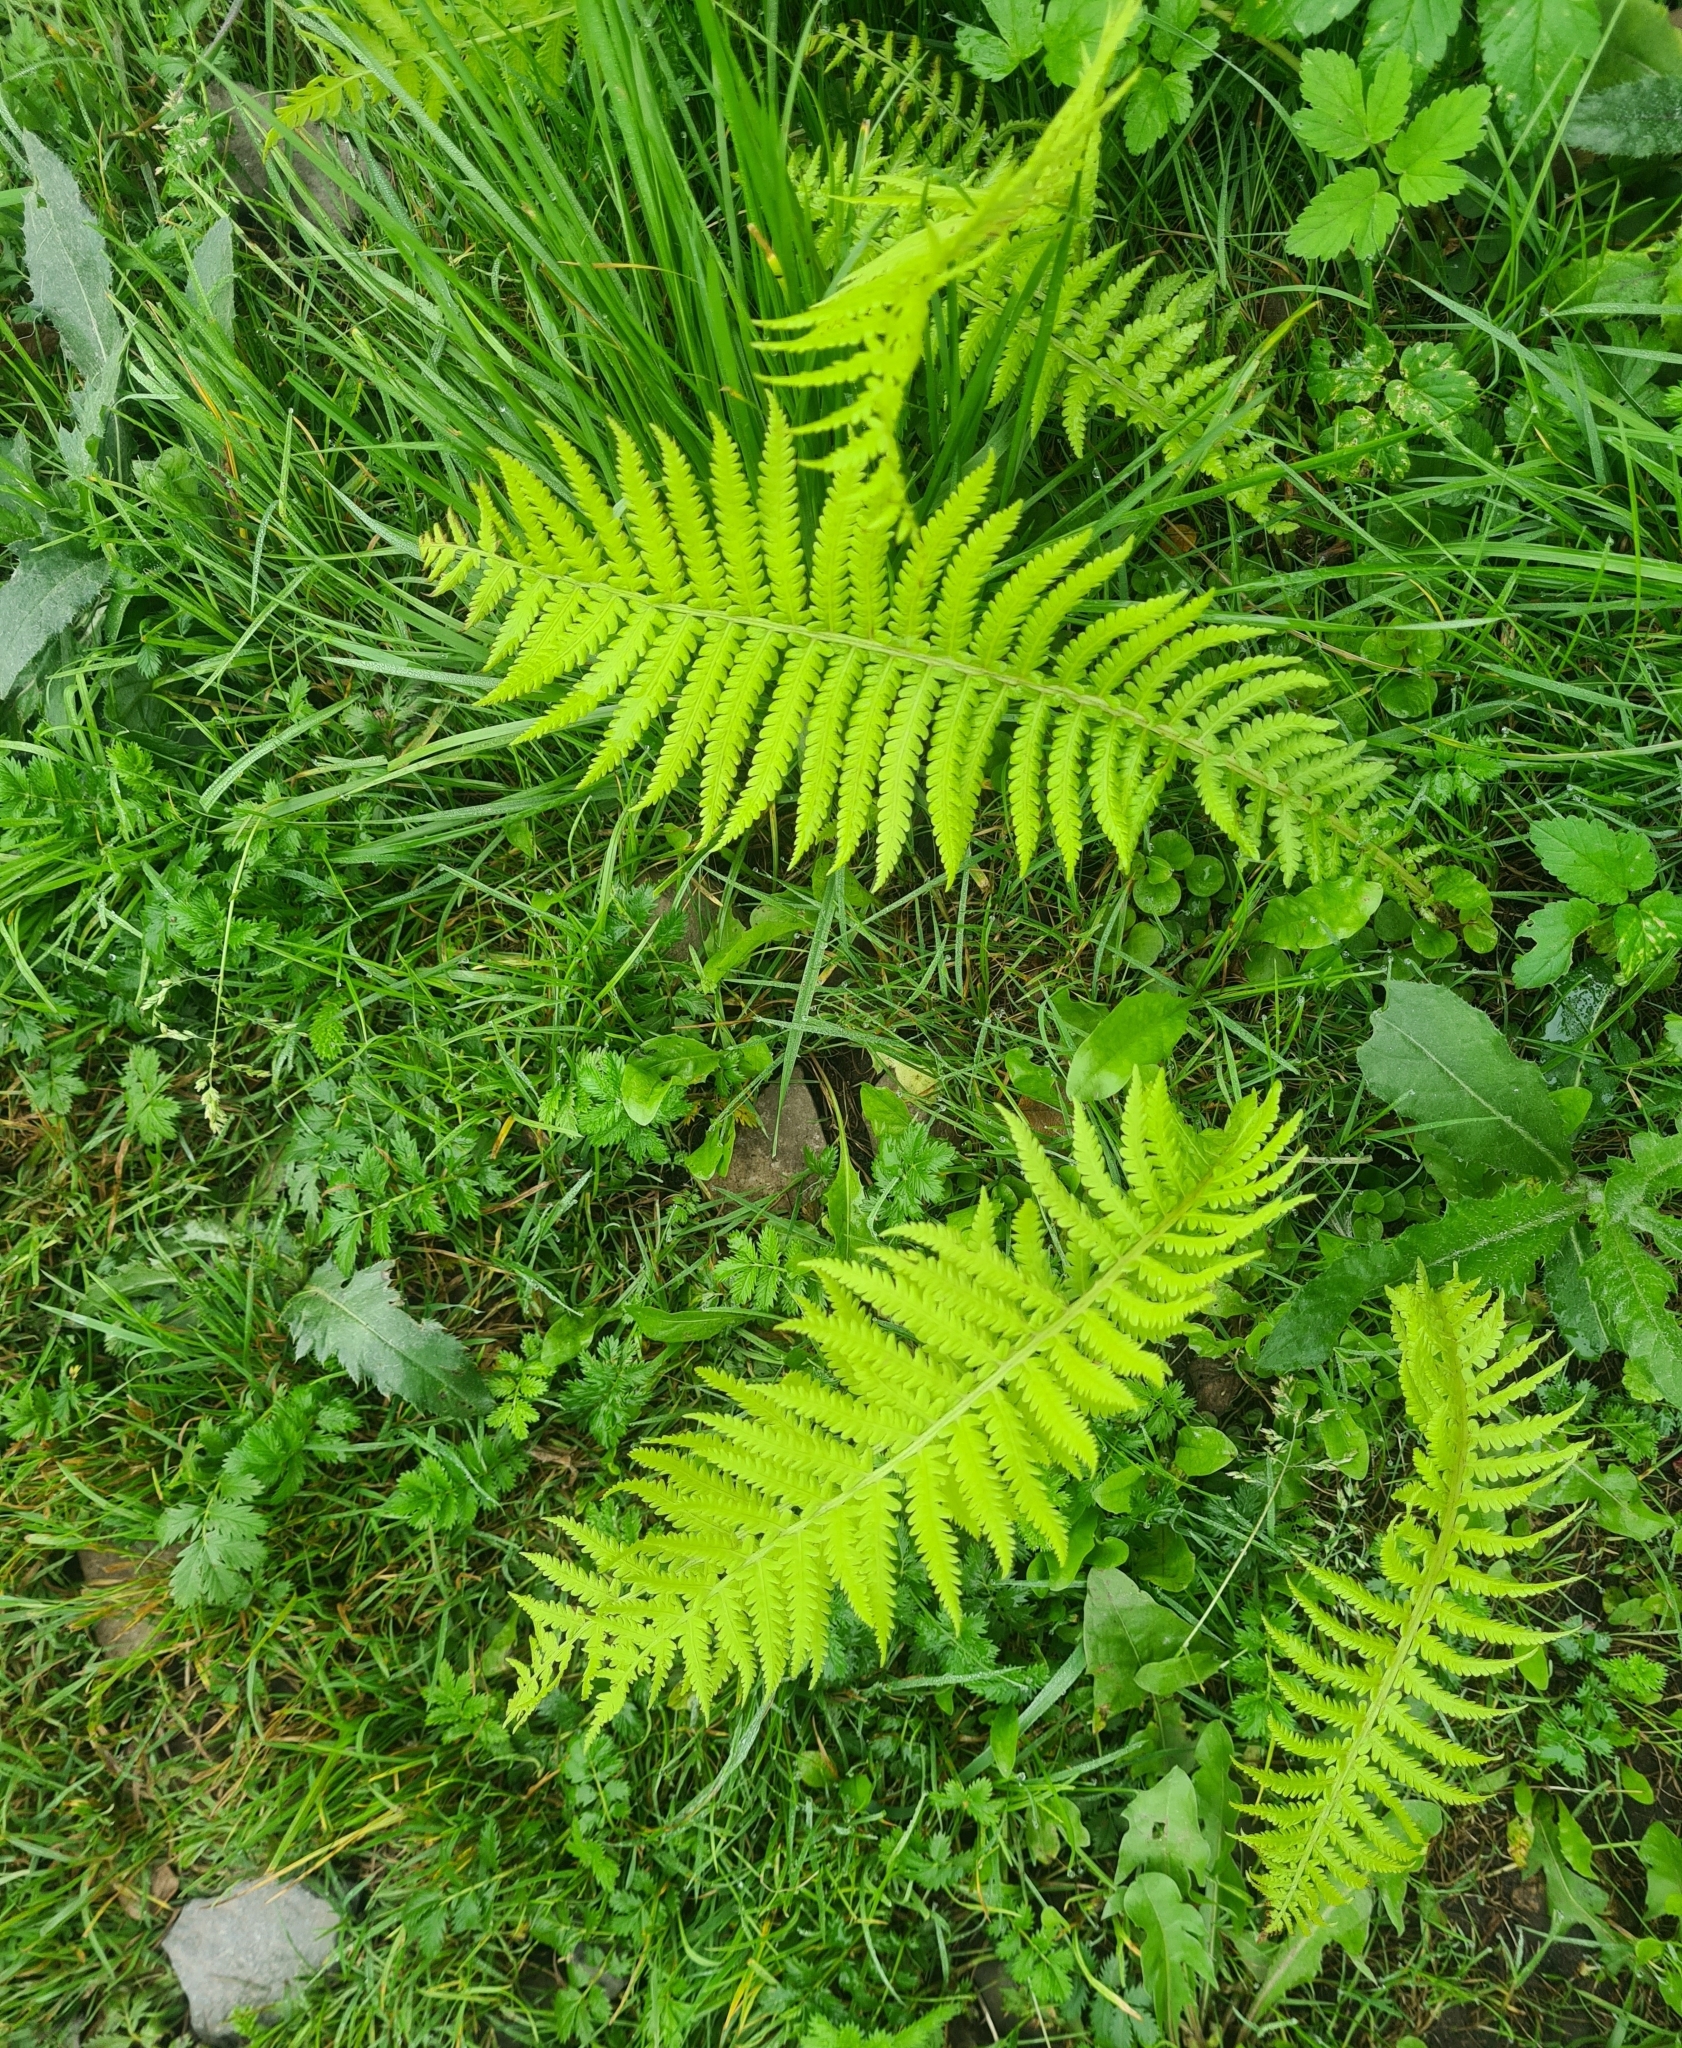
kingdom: Plantae
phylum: Tracheophyta
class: Polypodiopsida
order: Polypodiales
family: Onocleaceae
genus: Matteuccia
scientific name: Matteuccia struthiopteris
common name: Ostrich fern
